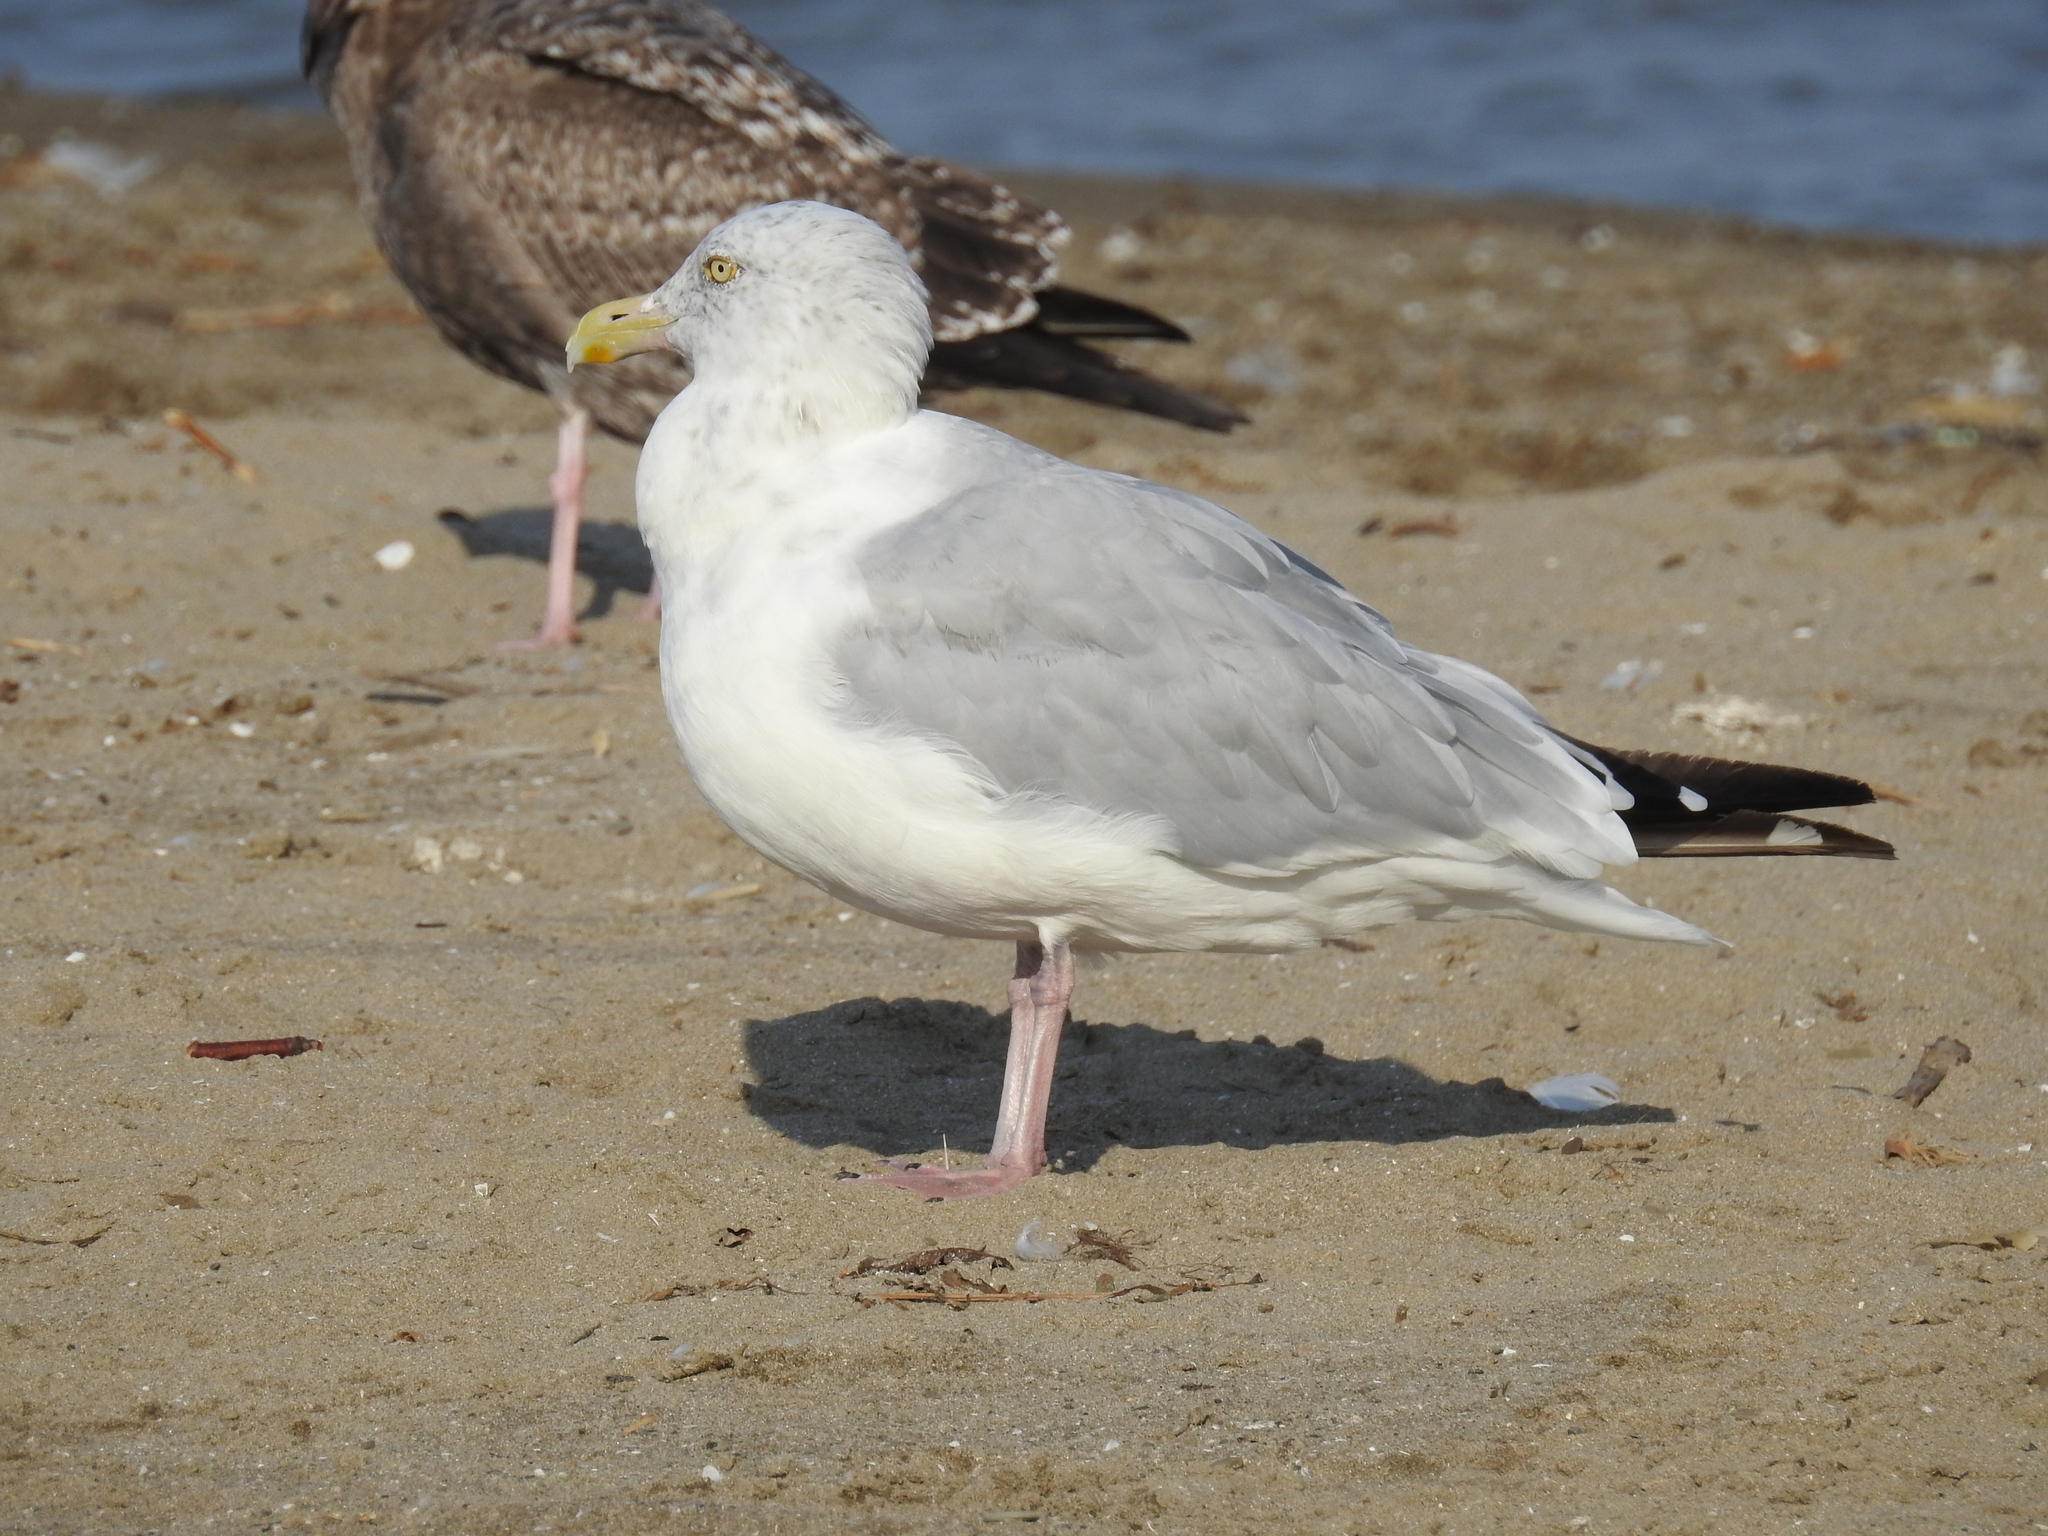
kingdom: Animalia
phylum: Chordata
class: Aves
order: Charadriiformes
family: Laridae
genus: Larus
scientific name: Larus argentatus
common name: Herring gull
